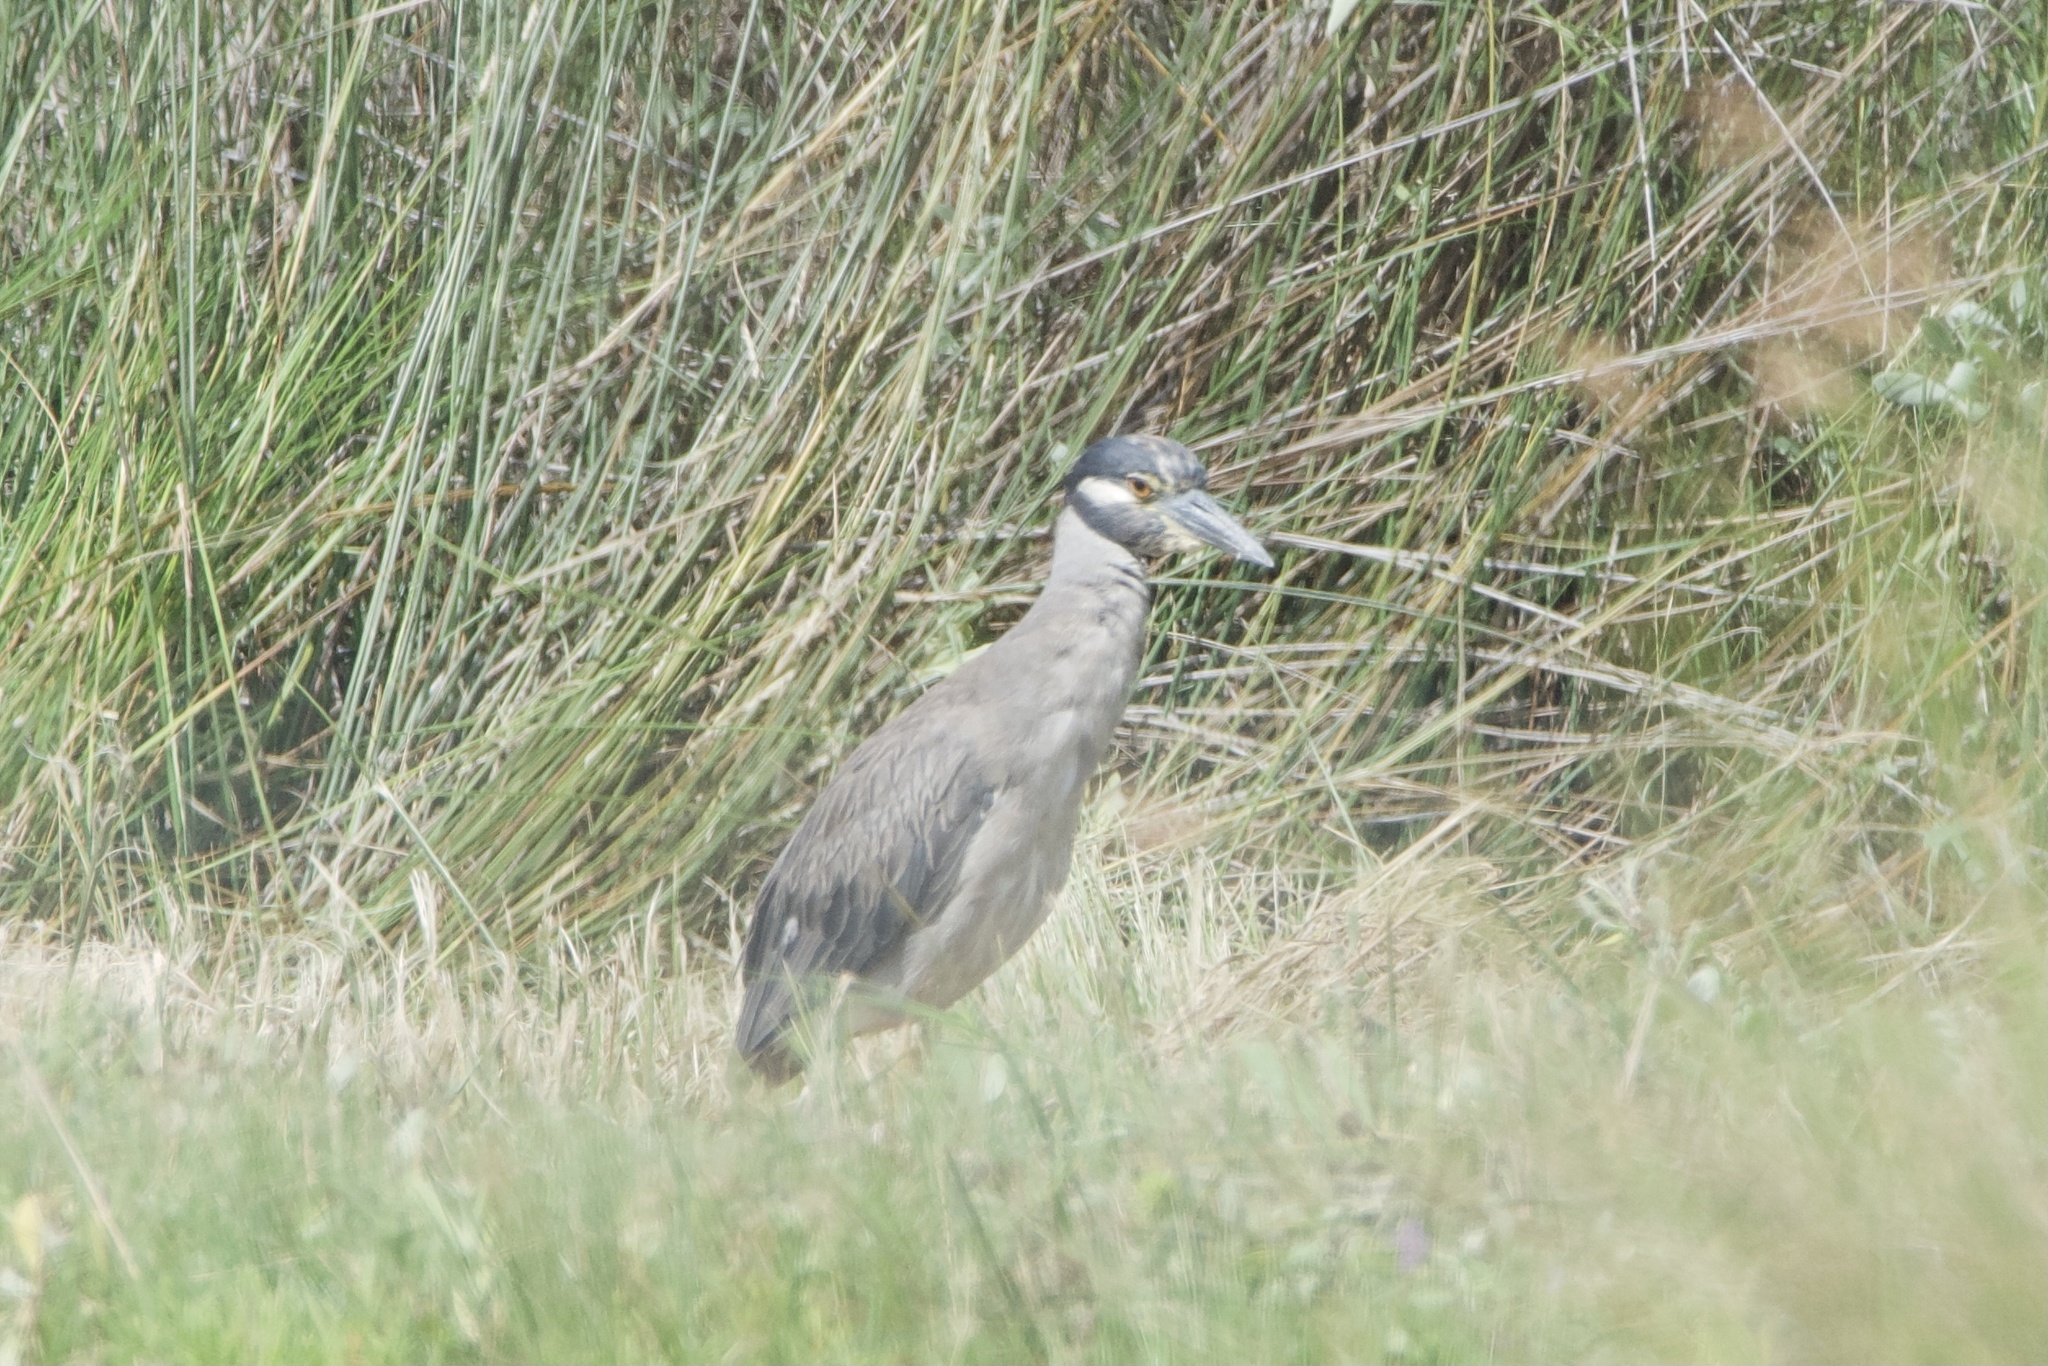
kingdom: Animalia
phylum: Chordata
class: Aves
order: Pelecaniformes
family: Ardeidae
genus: Nyctanassa
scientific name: Nyctanassa violacea
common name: Yellow-crowned night heron
